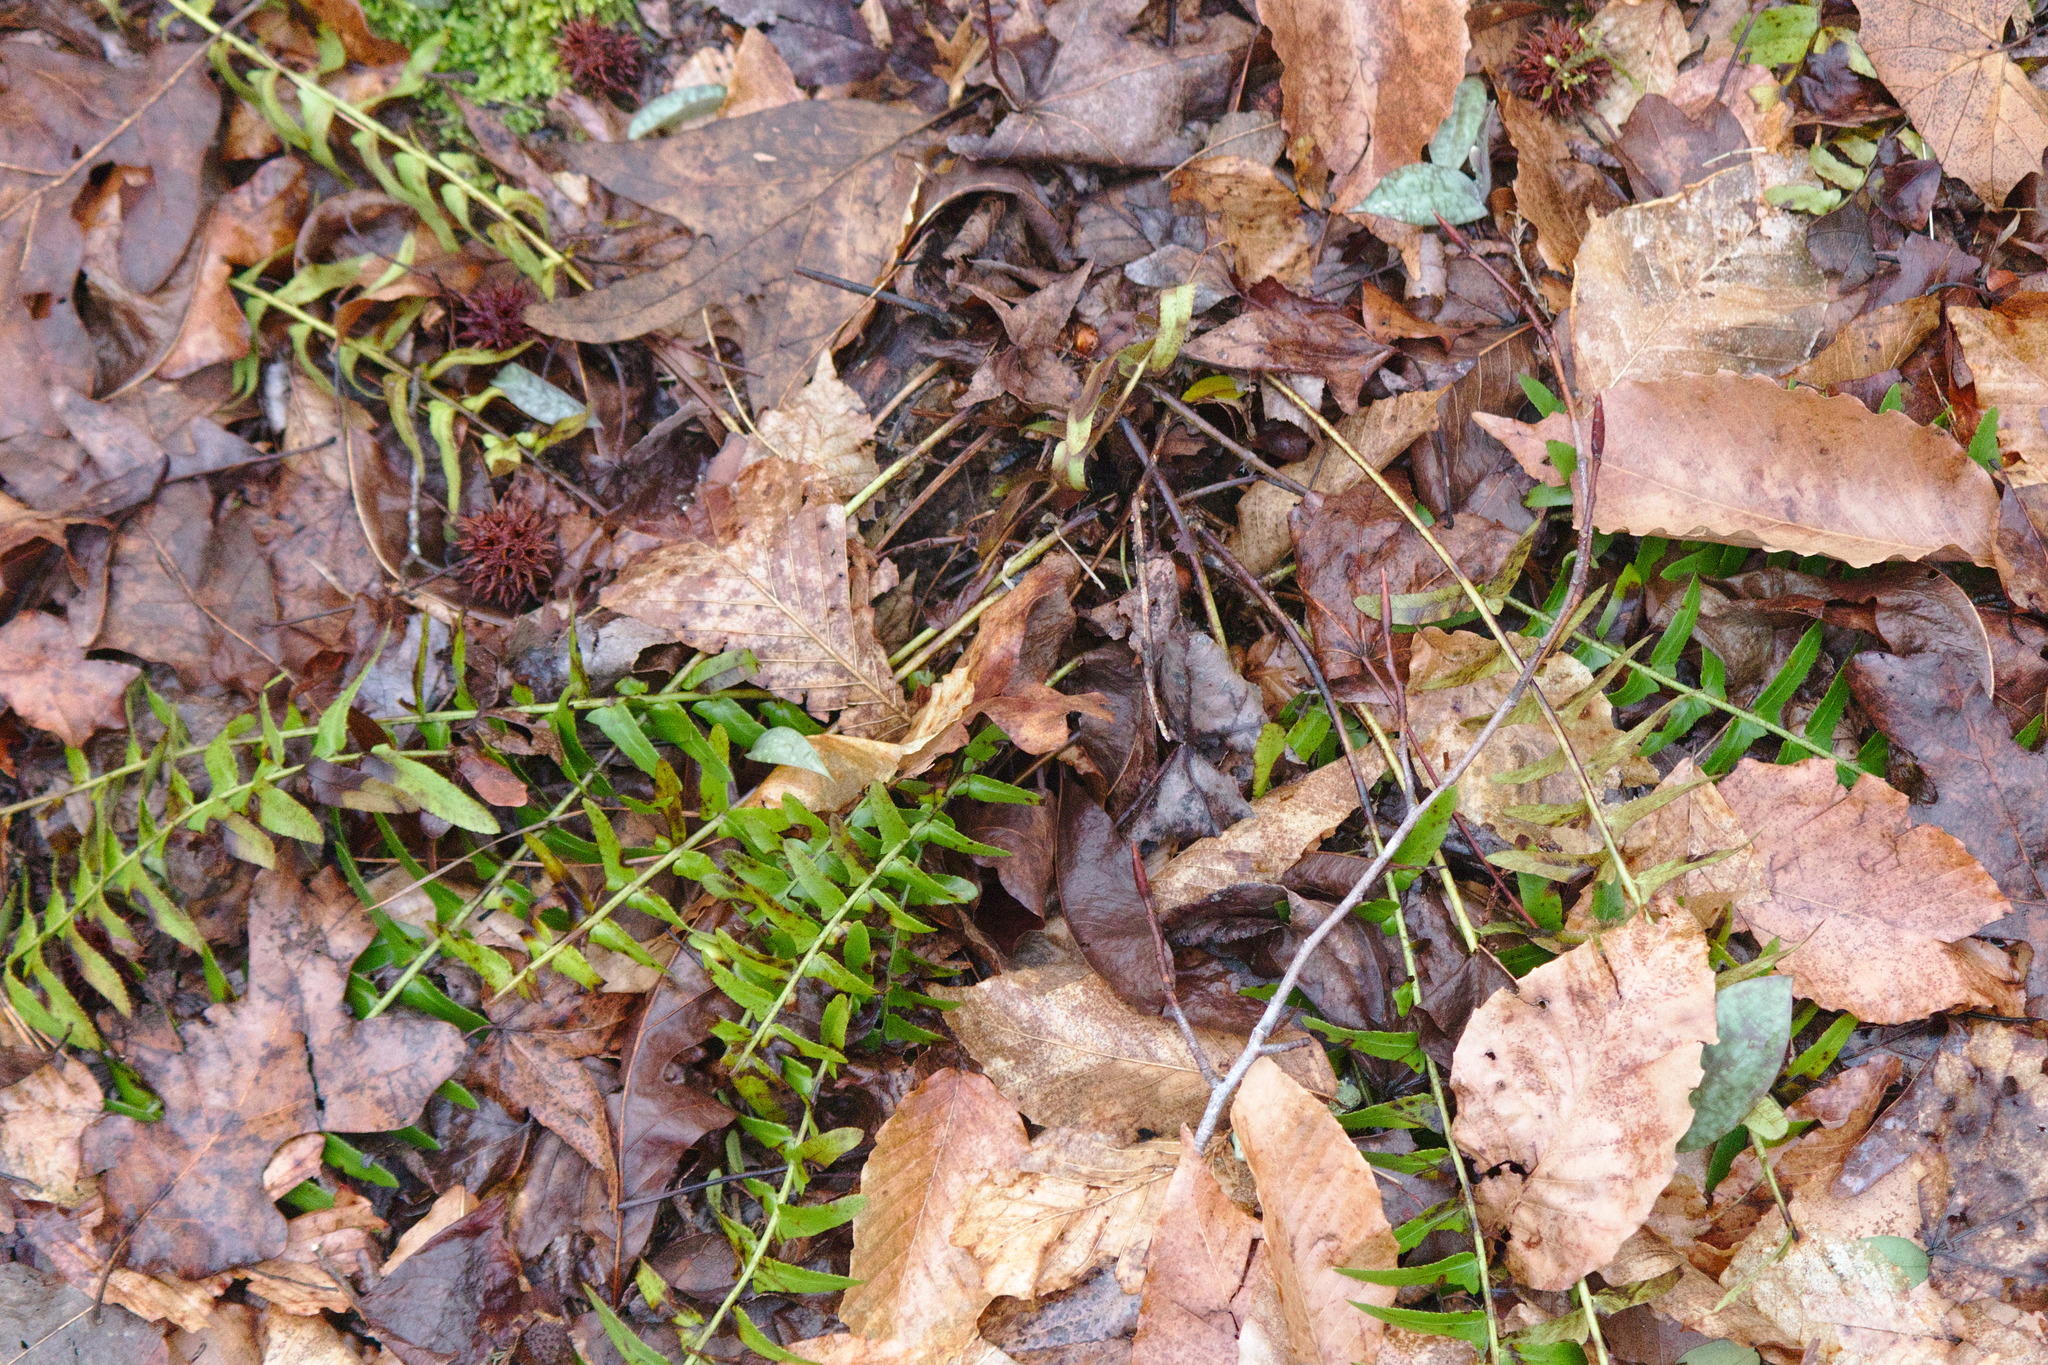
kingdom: Plantae
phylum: Tracheophyta
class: Polypodiopsida
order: Polypodiales
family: Dryopteridaceae
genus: Polystichum
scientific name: Polystichum acrostichoides
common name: Christmas fern
